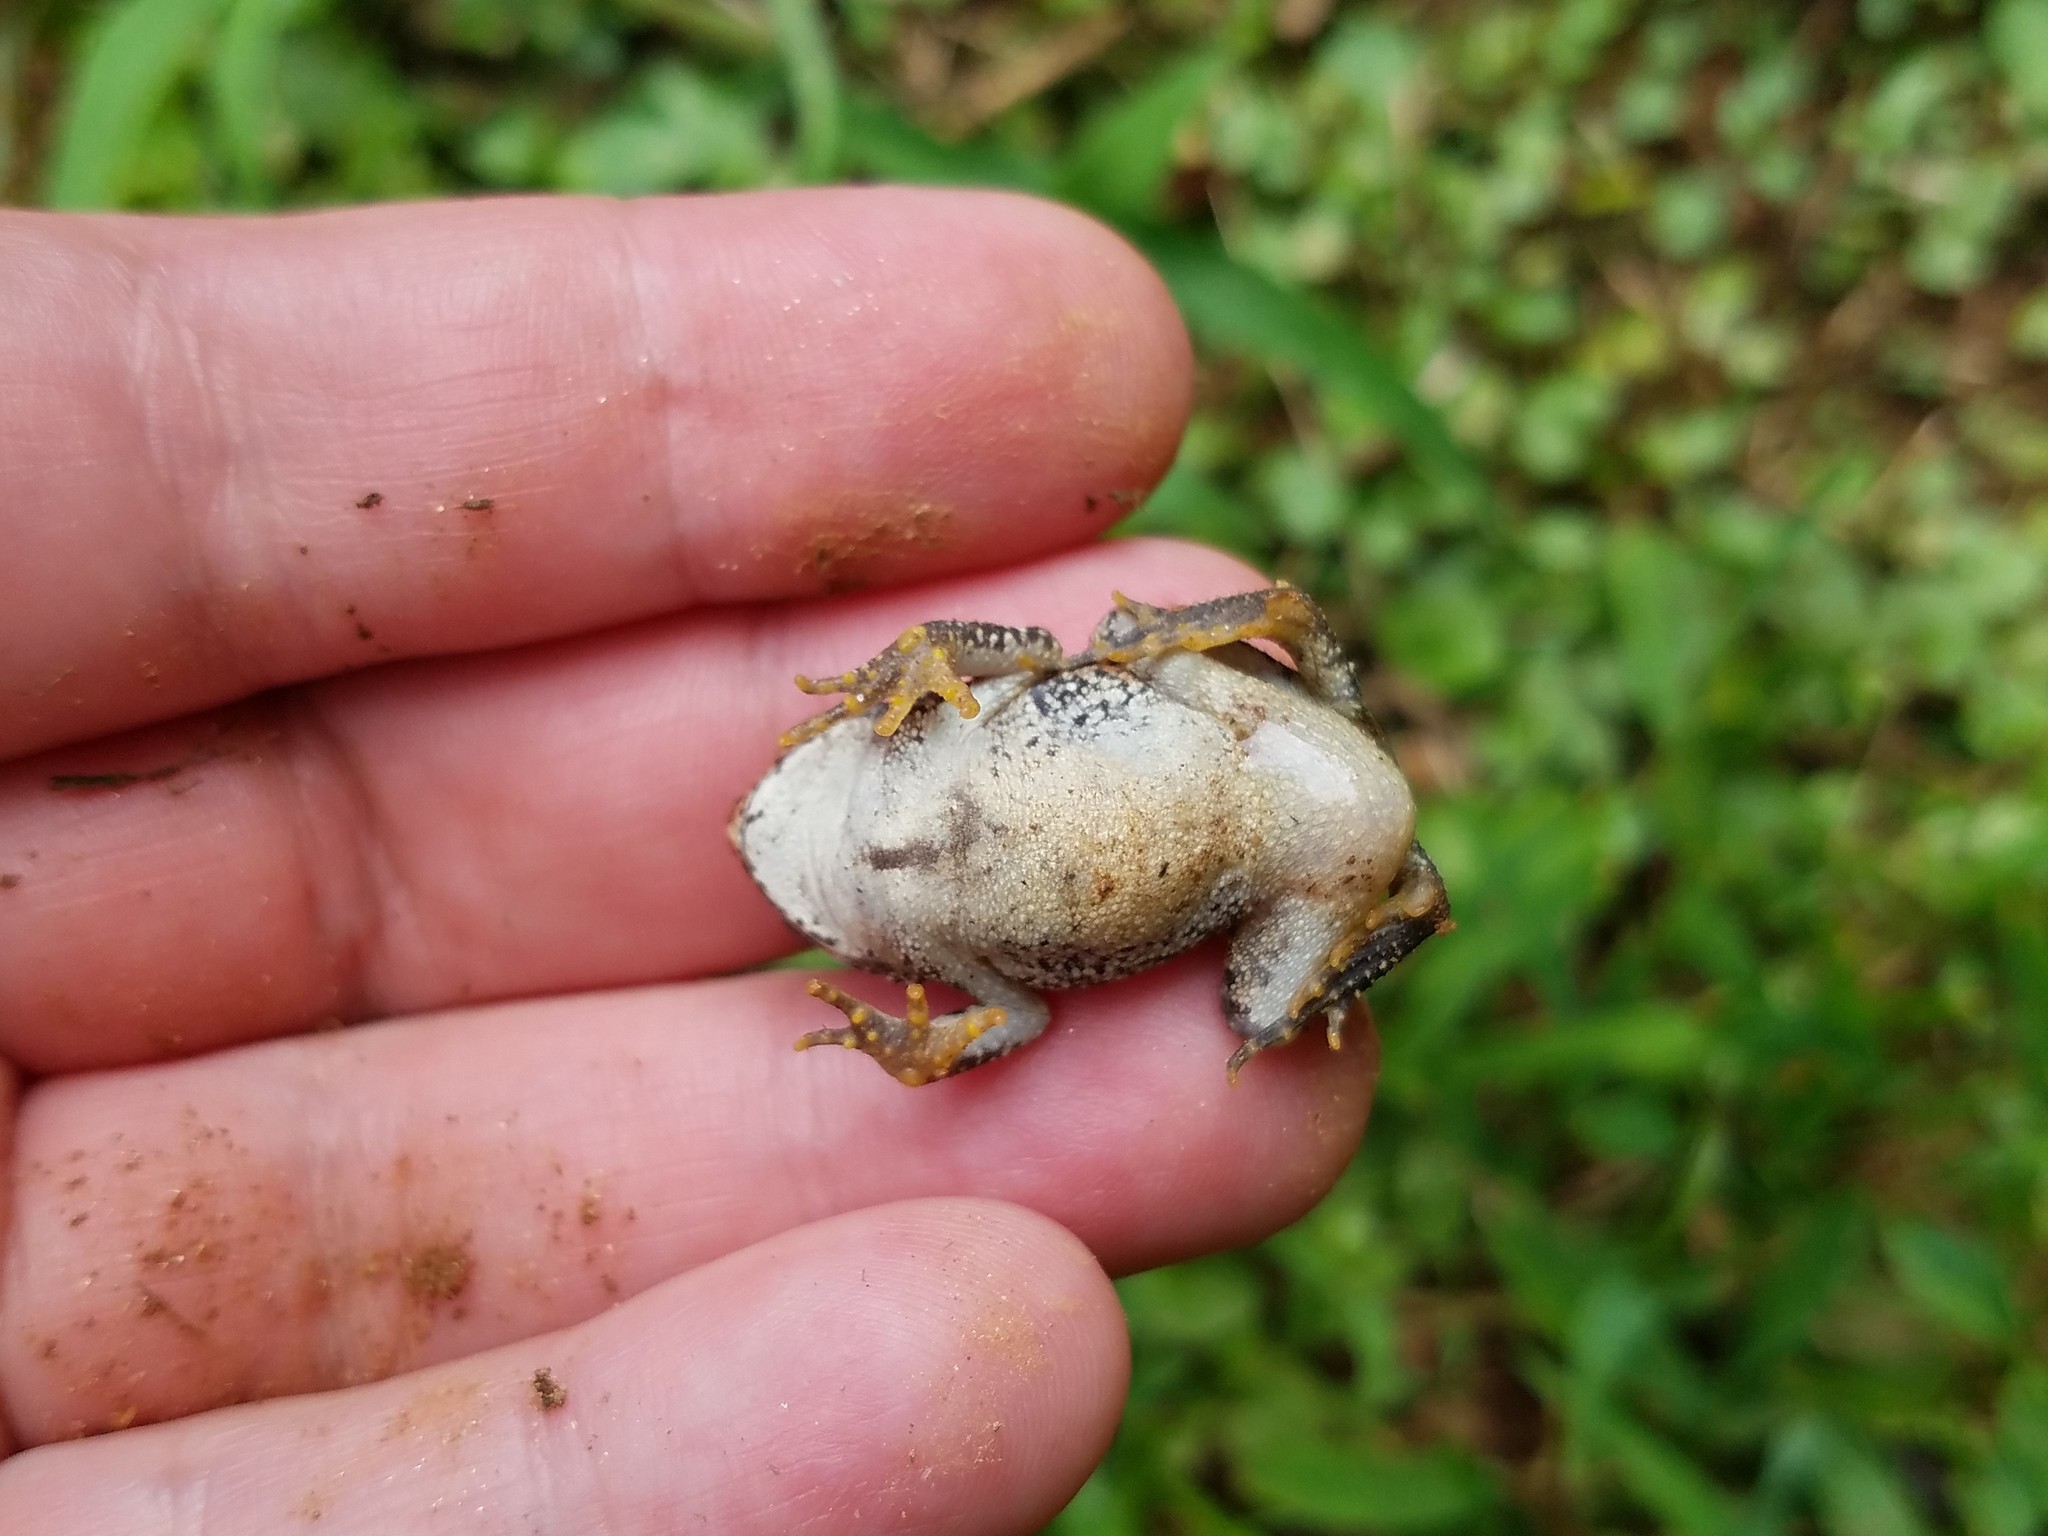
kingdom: Animalia
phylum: Chordata
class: Amphibia
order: Anura
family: Bufonidae
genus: Anaxyrus
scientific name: Anaxyrus fowleri
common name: Fowler's toad
